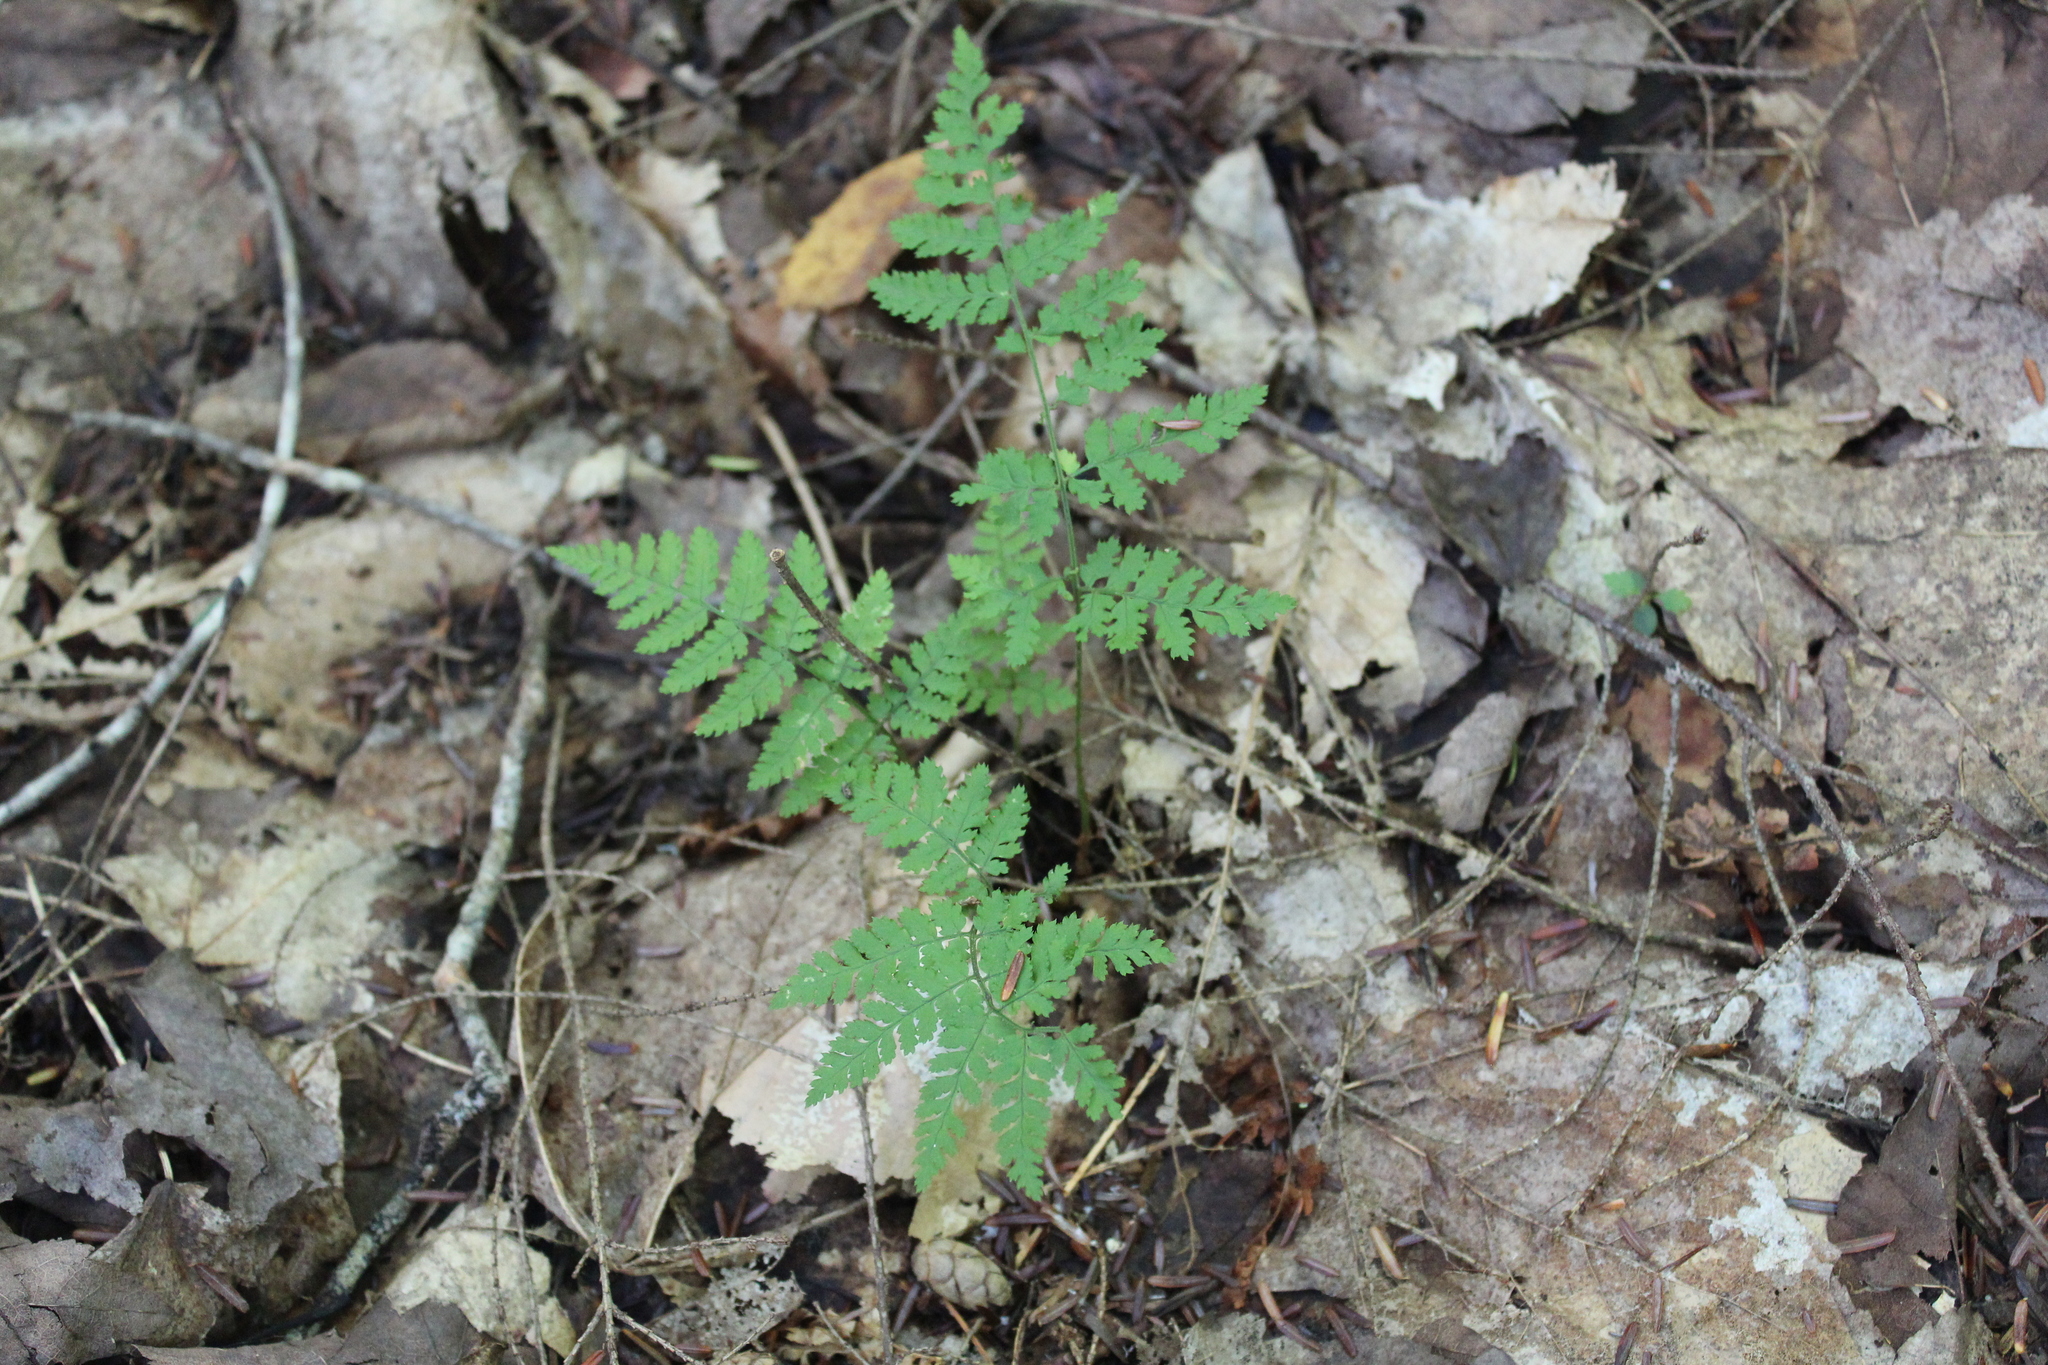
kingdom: Plantae
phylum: Tracheophyta
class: Polypodiopsida
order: Polypodiales
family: Dryopteridaceae
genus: Dryopteris
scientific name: Dryopteris intermedia
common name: Evergreen wood fern
